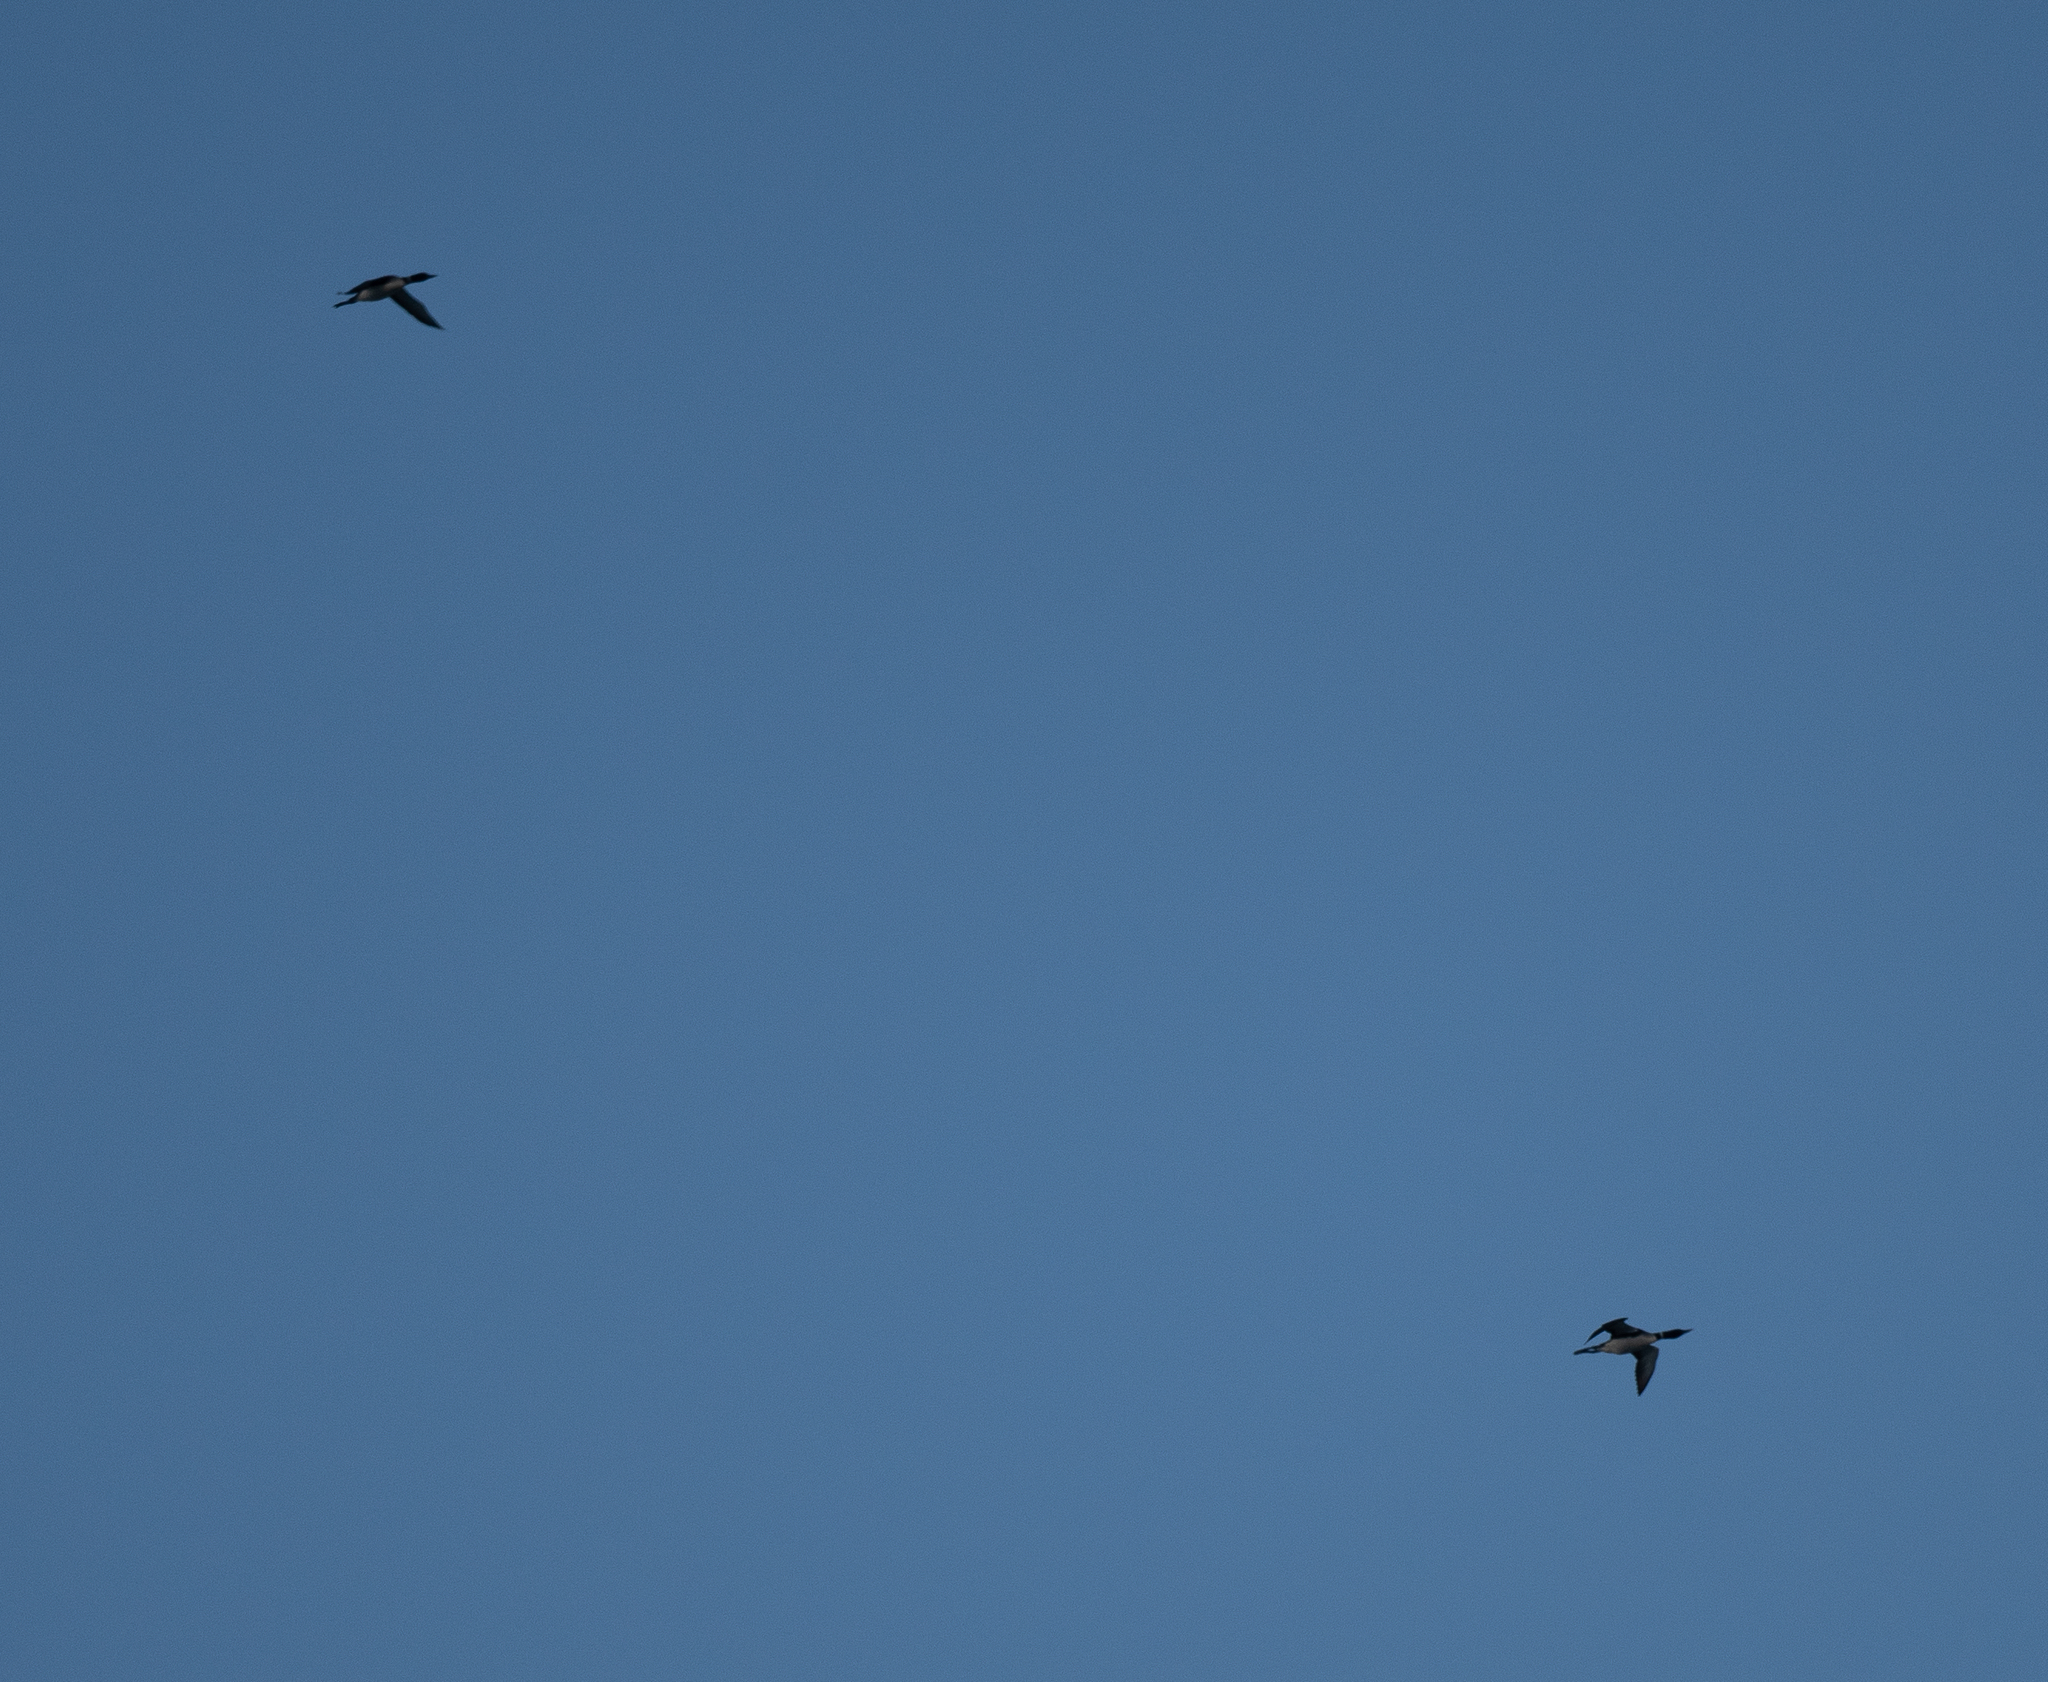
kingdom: Animalia
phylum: Chordata
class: Aves
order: Gaviiformes
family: Gaviidae
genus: Gavia
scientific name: Gavia immer
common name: Common loon
